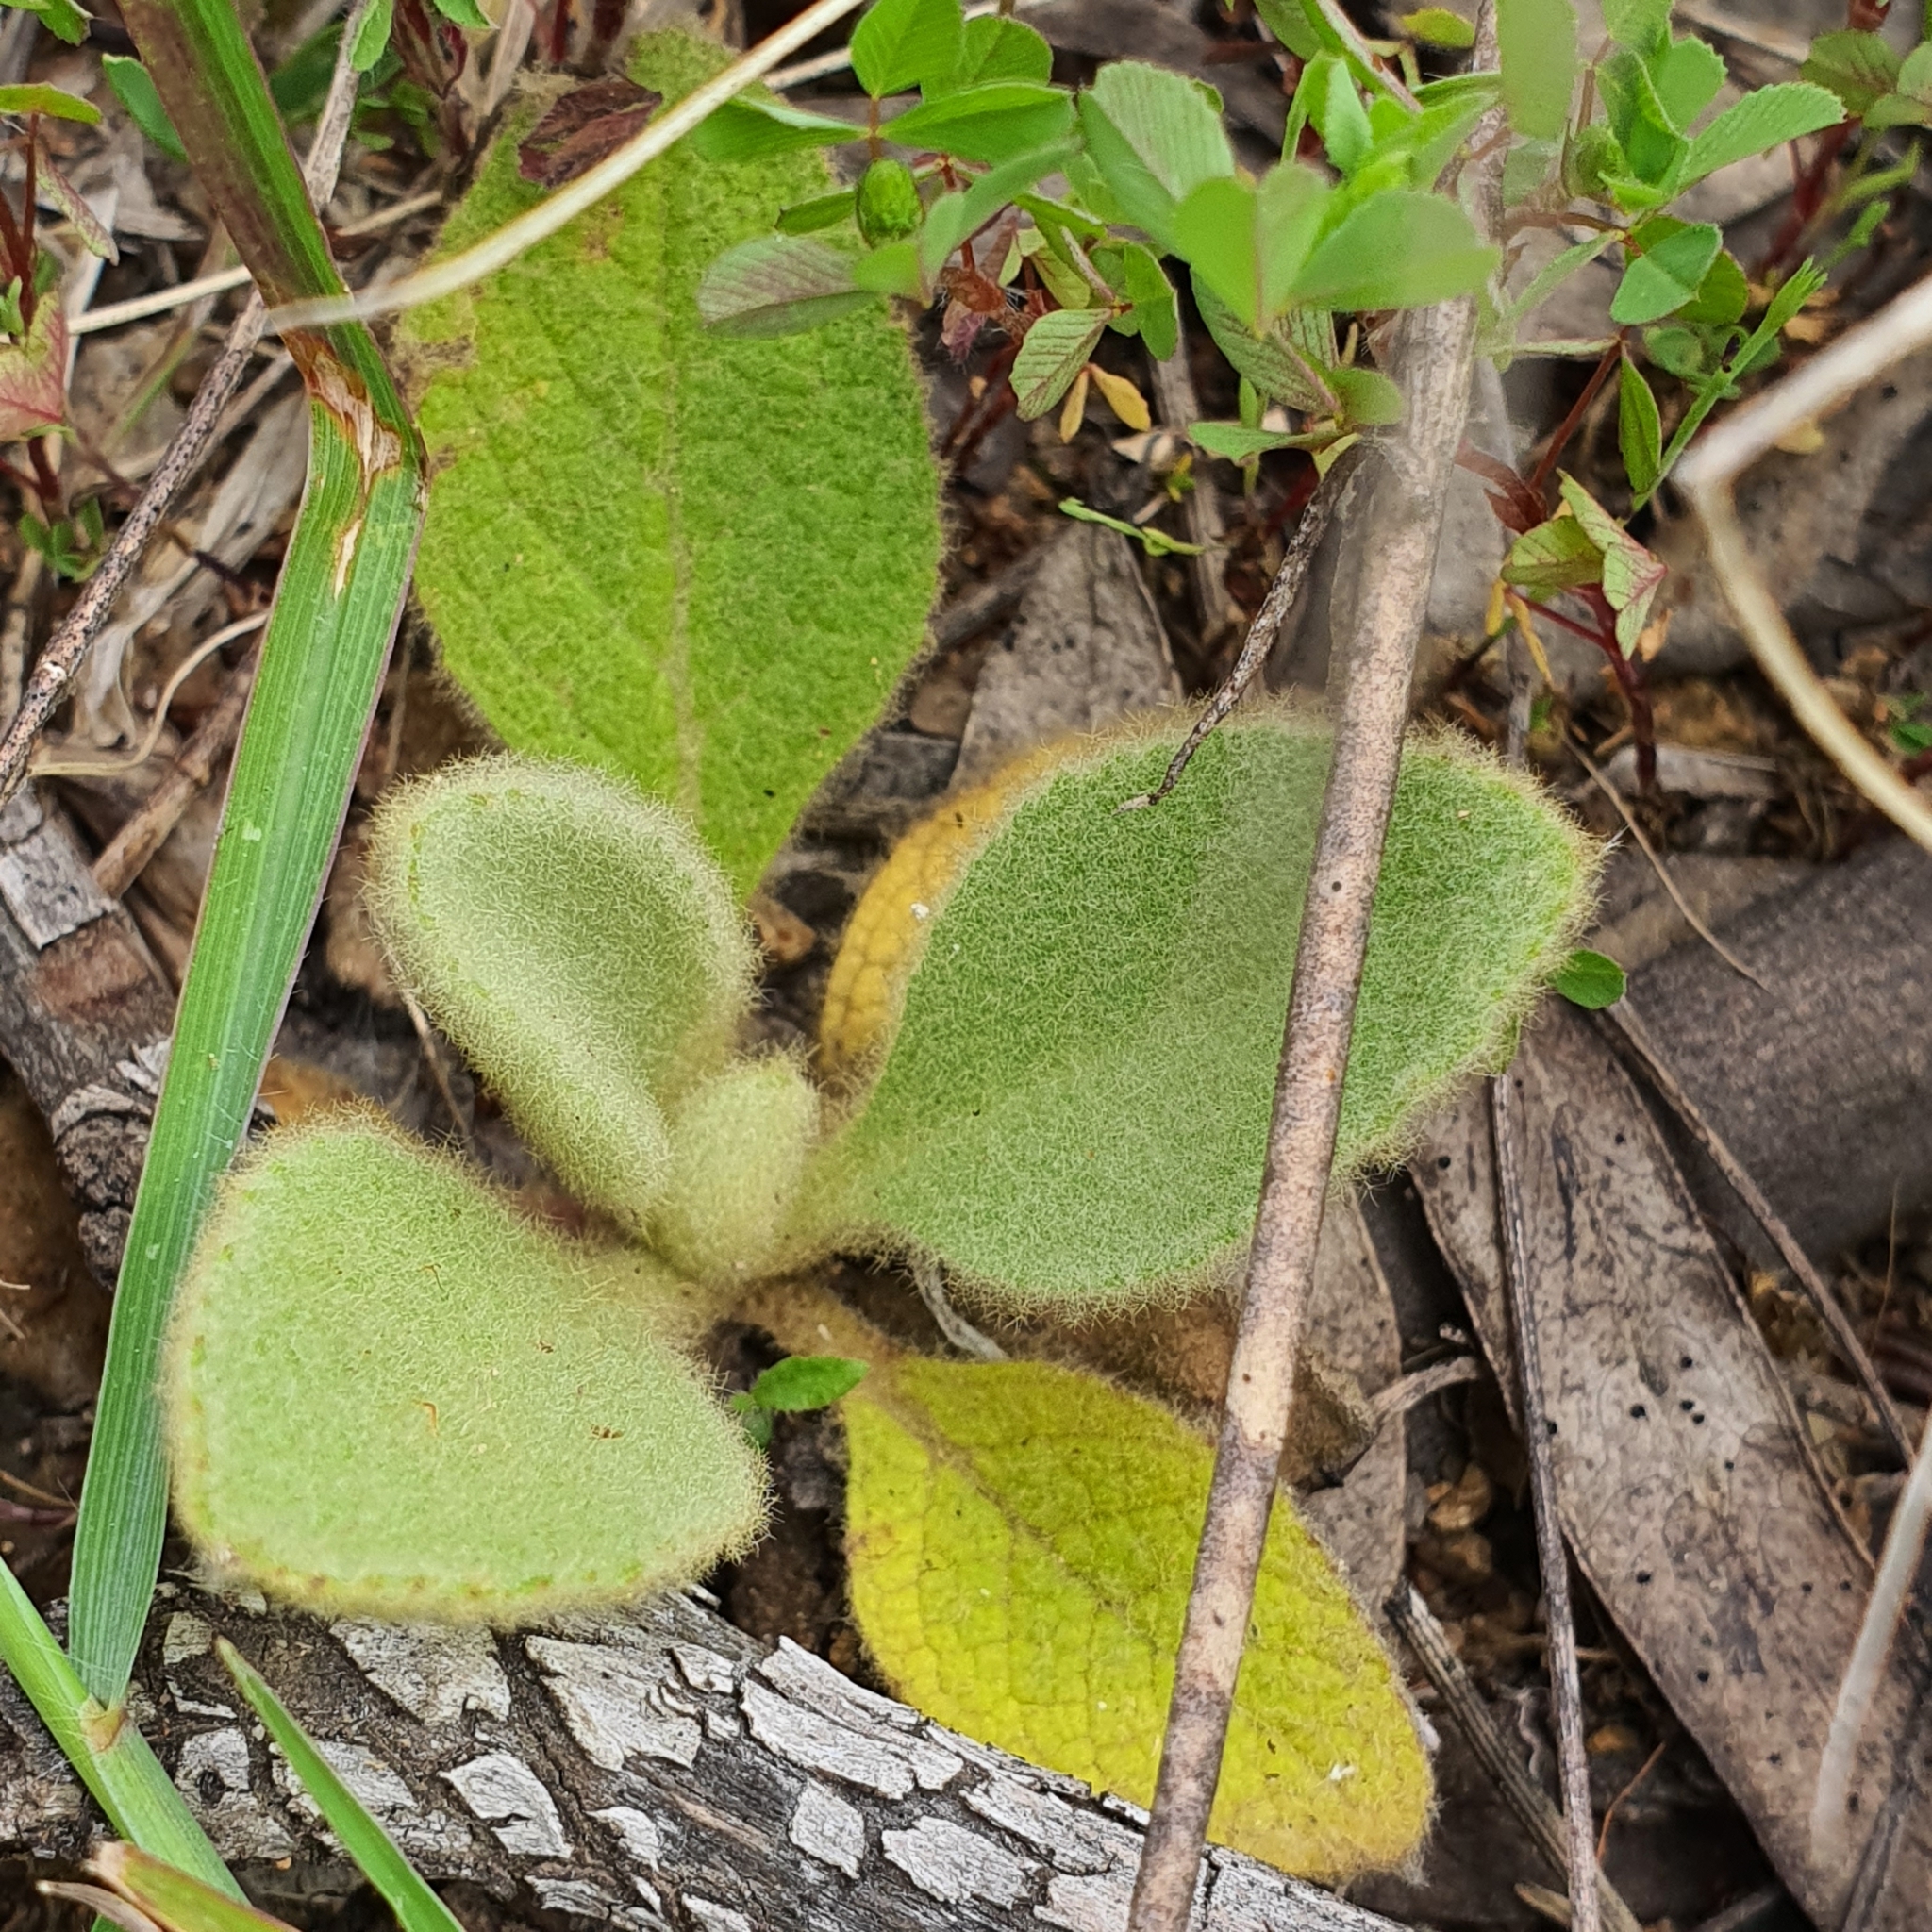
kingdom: Plantae
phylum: Tracheophyta
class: Magnoliopsida
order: Lamiales
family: Scrophulariaceae
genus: Verbascum
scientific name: Verbascum thapsus
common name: Common mullein
